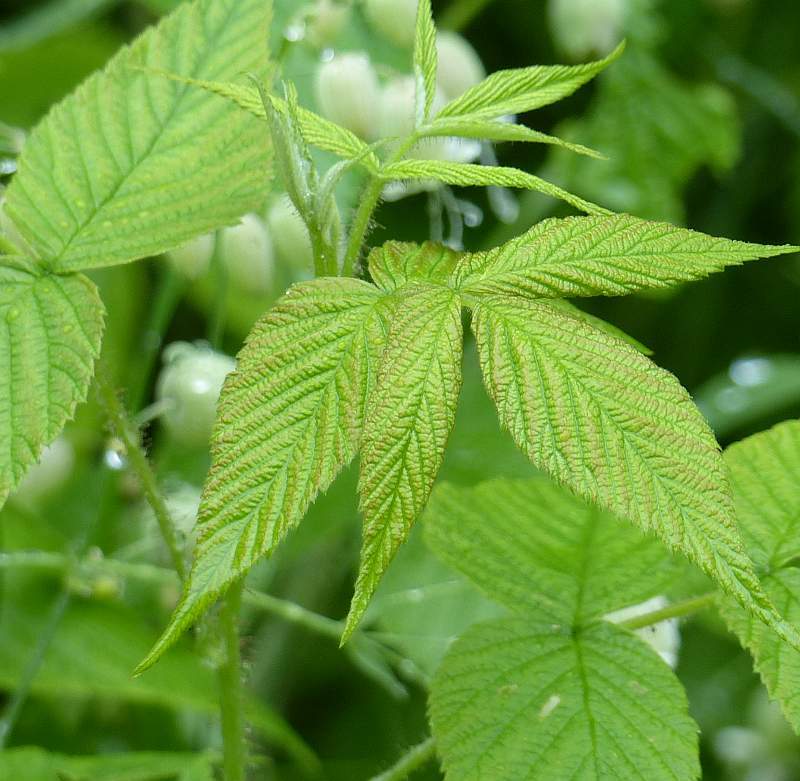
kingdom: Plantae
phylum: Tracheophyta
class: Magnoliopsida
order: Rosales
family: Rosaceae
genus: Rubus
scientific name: Rubus idaeus
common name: Raspberry
